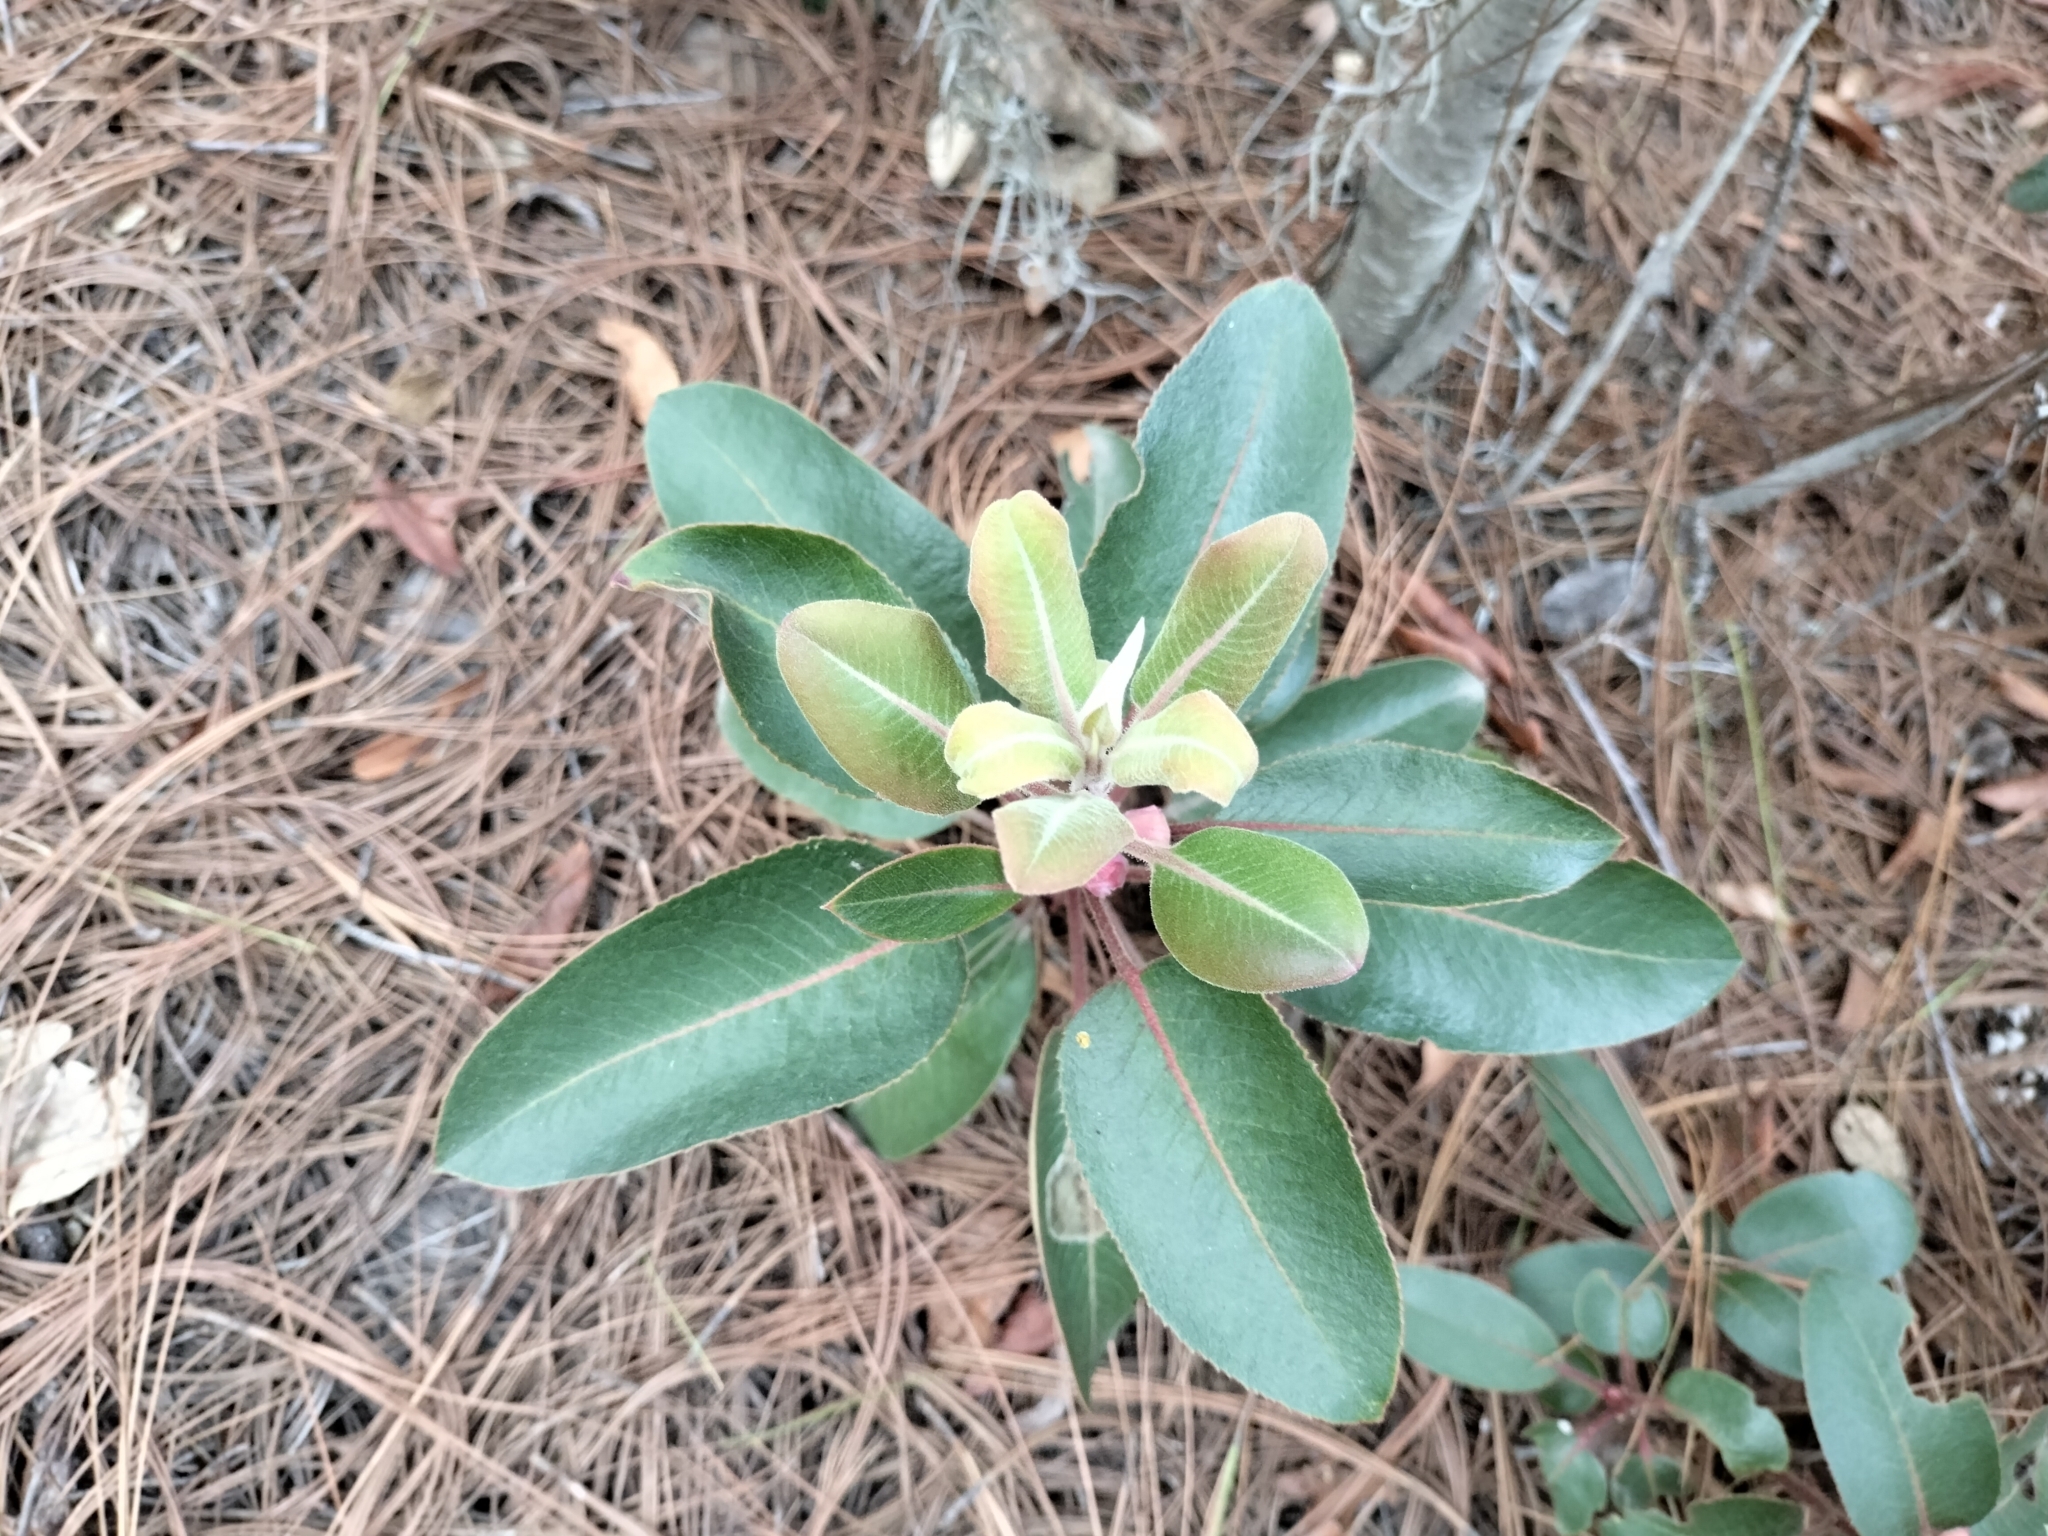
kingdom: Plantae
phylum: Tracheophyta
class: Magnoliopsida
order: Ericales
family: Ericaceae
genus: Arbutus
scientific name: Arbutus xalapensis
